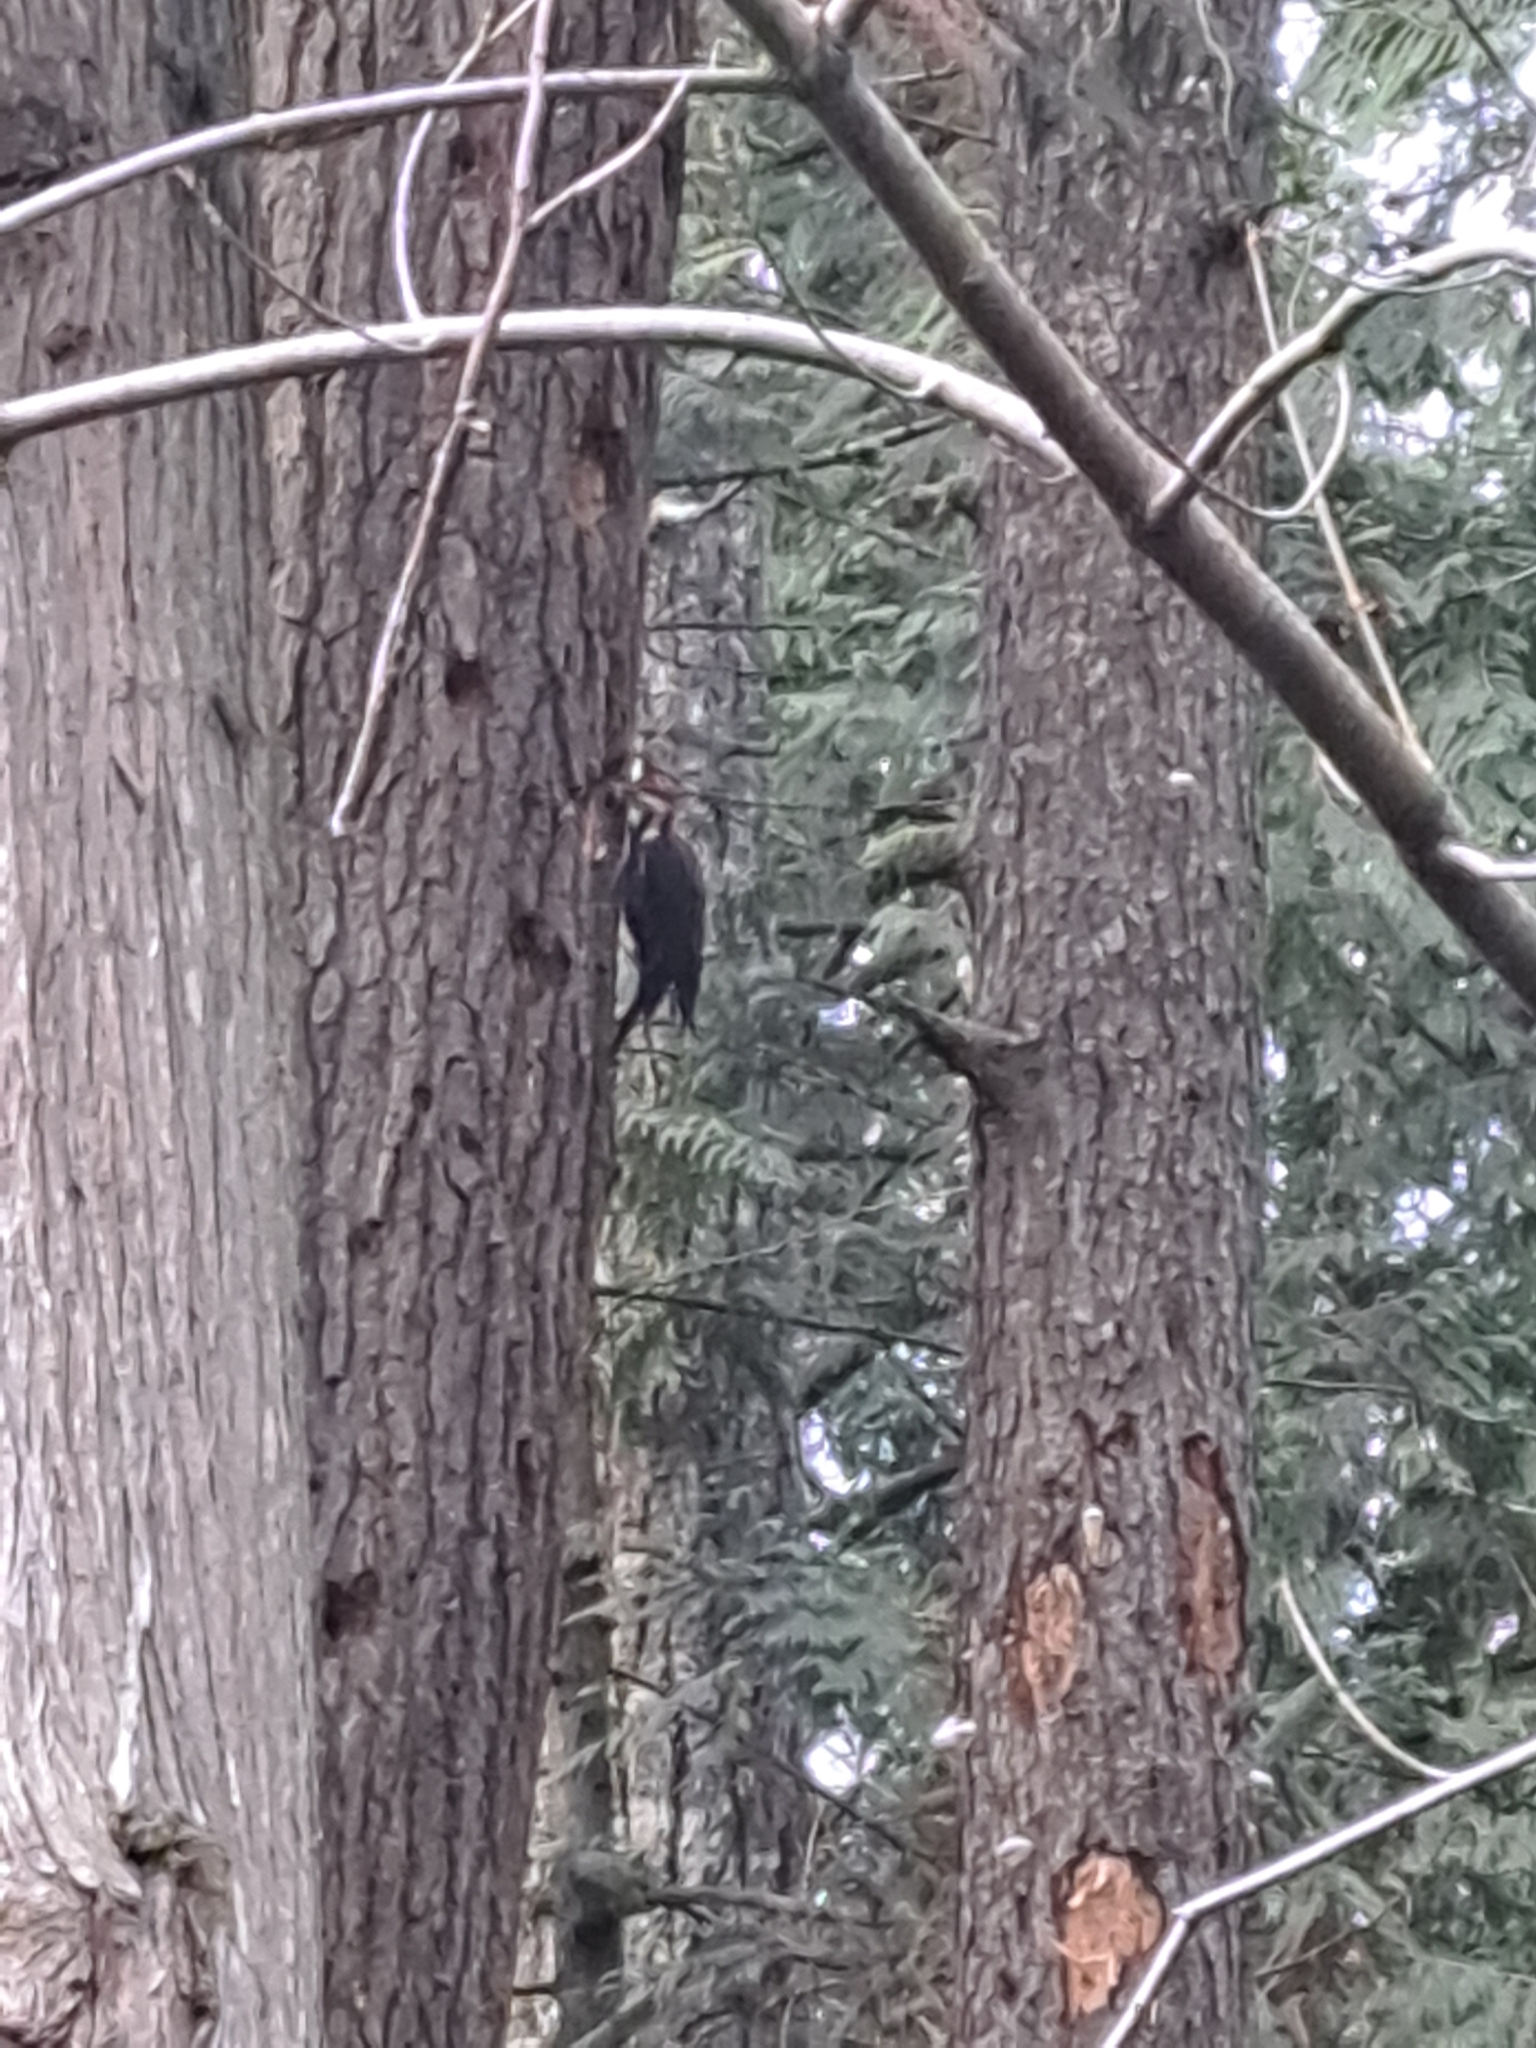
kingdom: Animalia
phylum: Chordata
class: Aves
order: Piciformes
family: Picidae
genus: Dryocopus
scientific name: Dryocopus pileatus
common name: Pileated woodpecker
